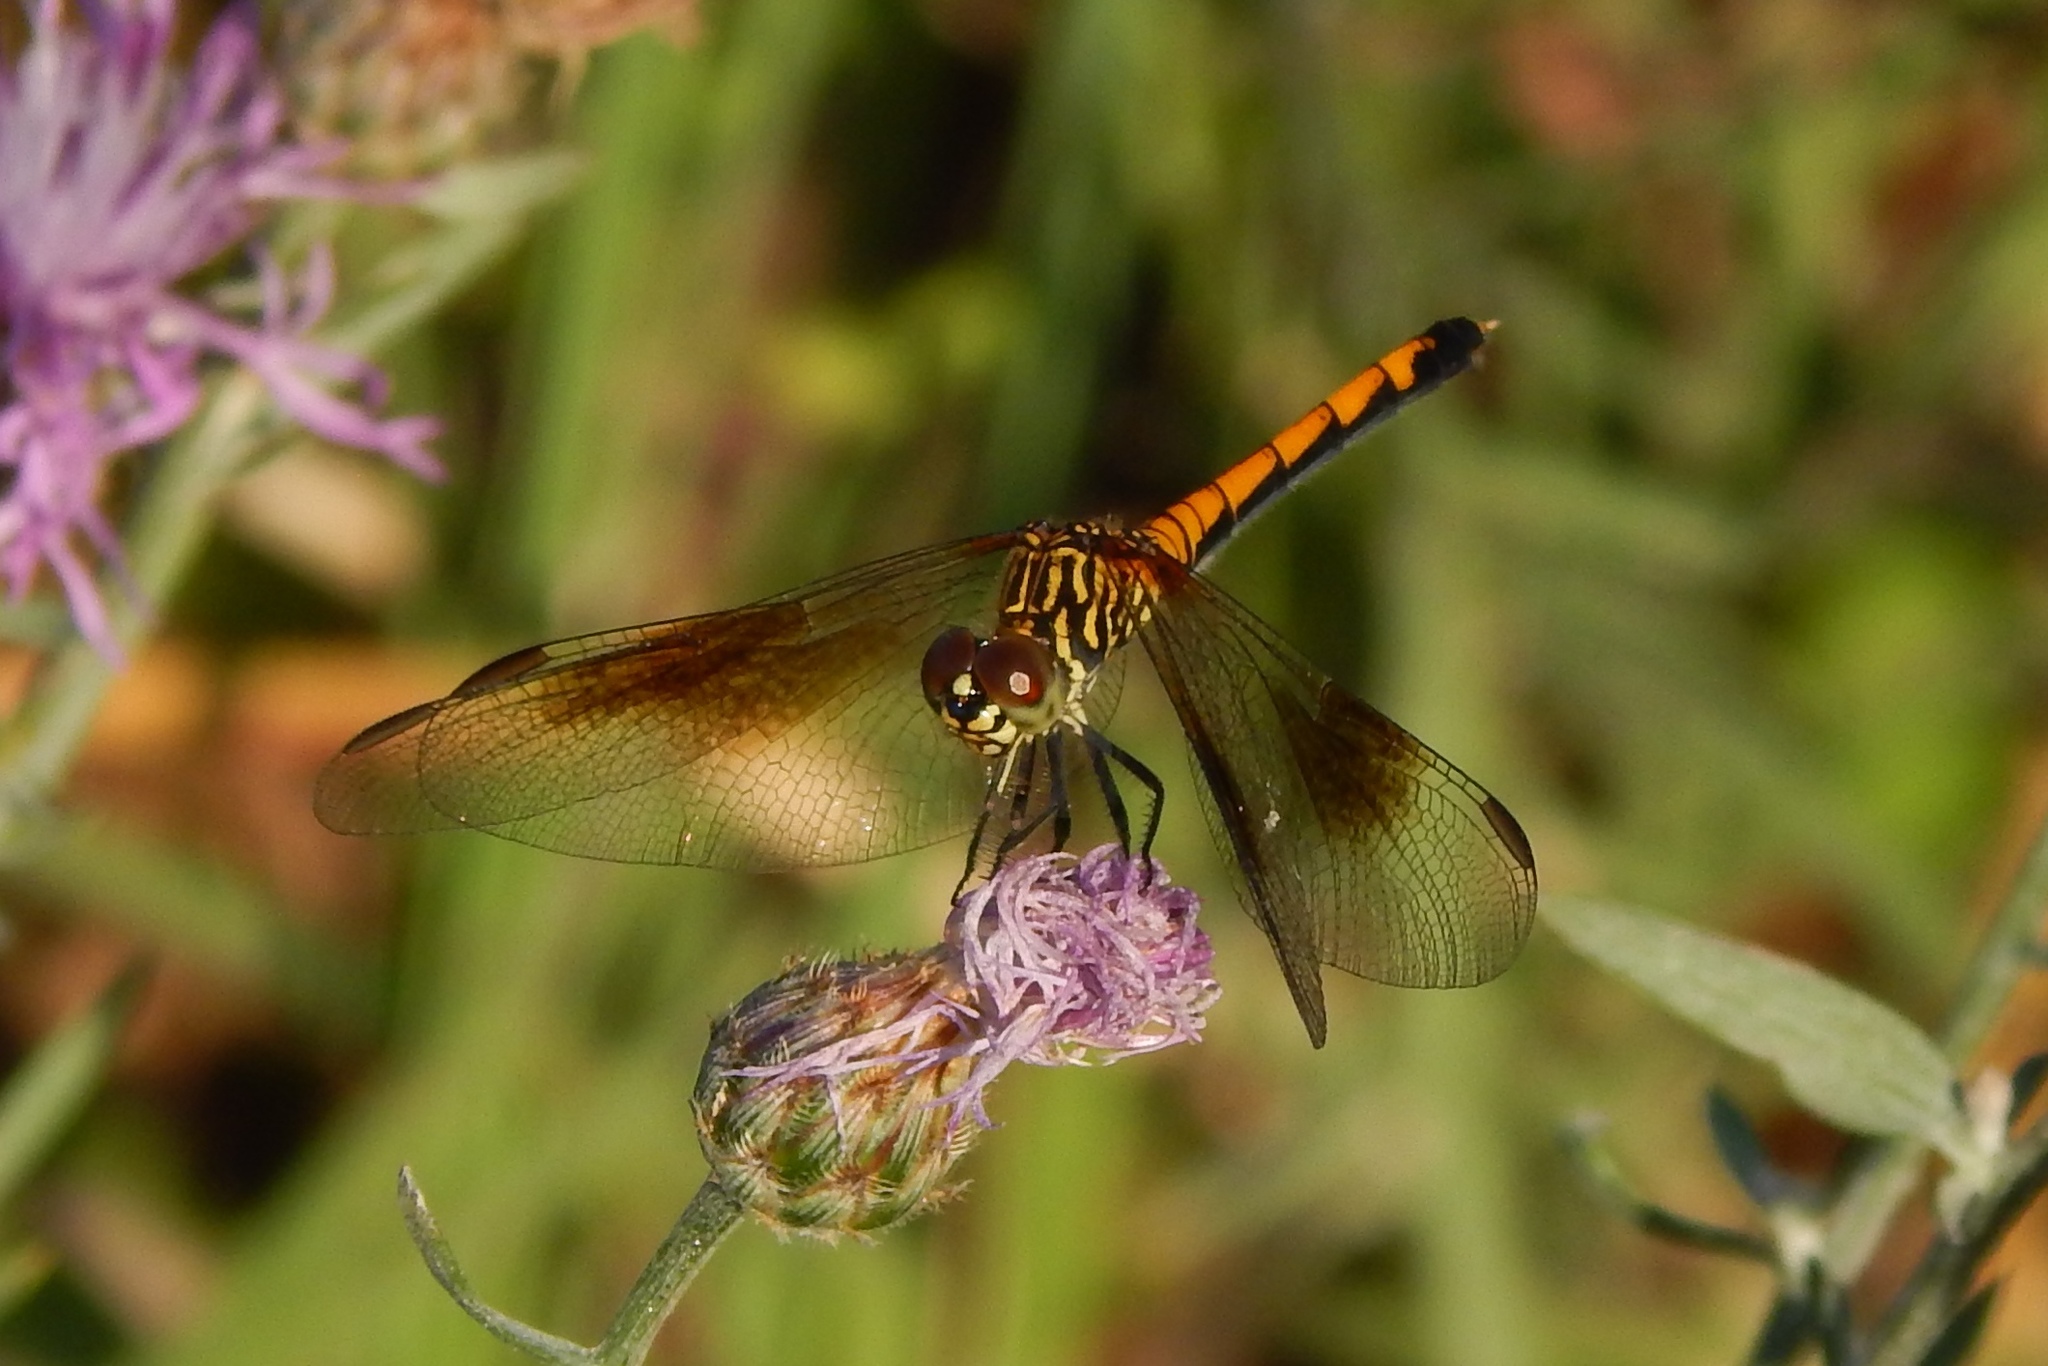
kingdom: Animalia
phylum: Arthropoda
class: Insecta
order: Odonata
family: Libellulidae
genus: Erythrodiplax
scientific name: Erythrodiplax berenice
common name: Seaside dragonlet
